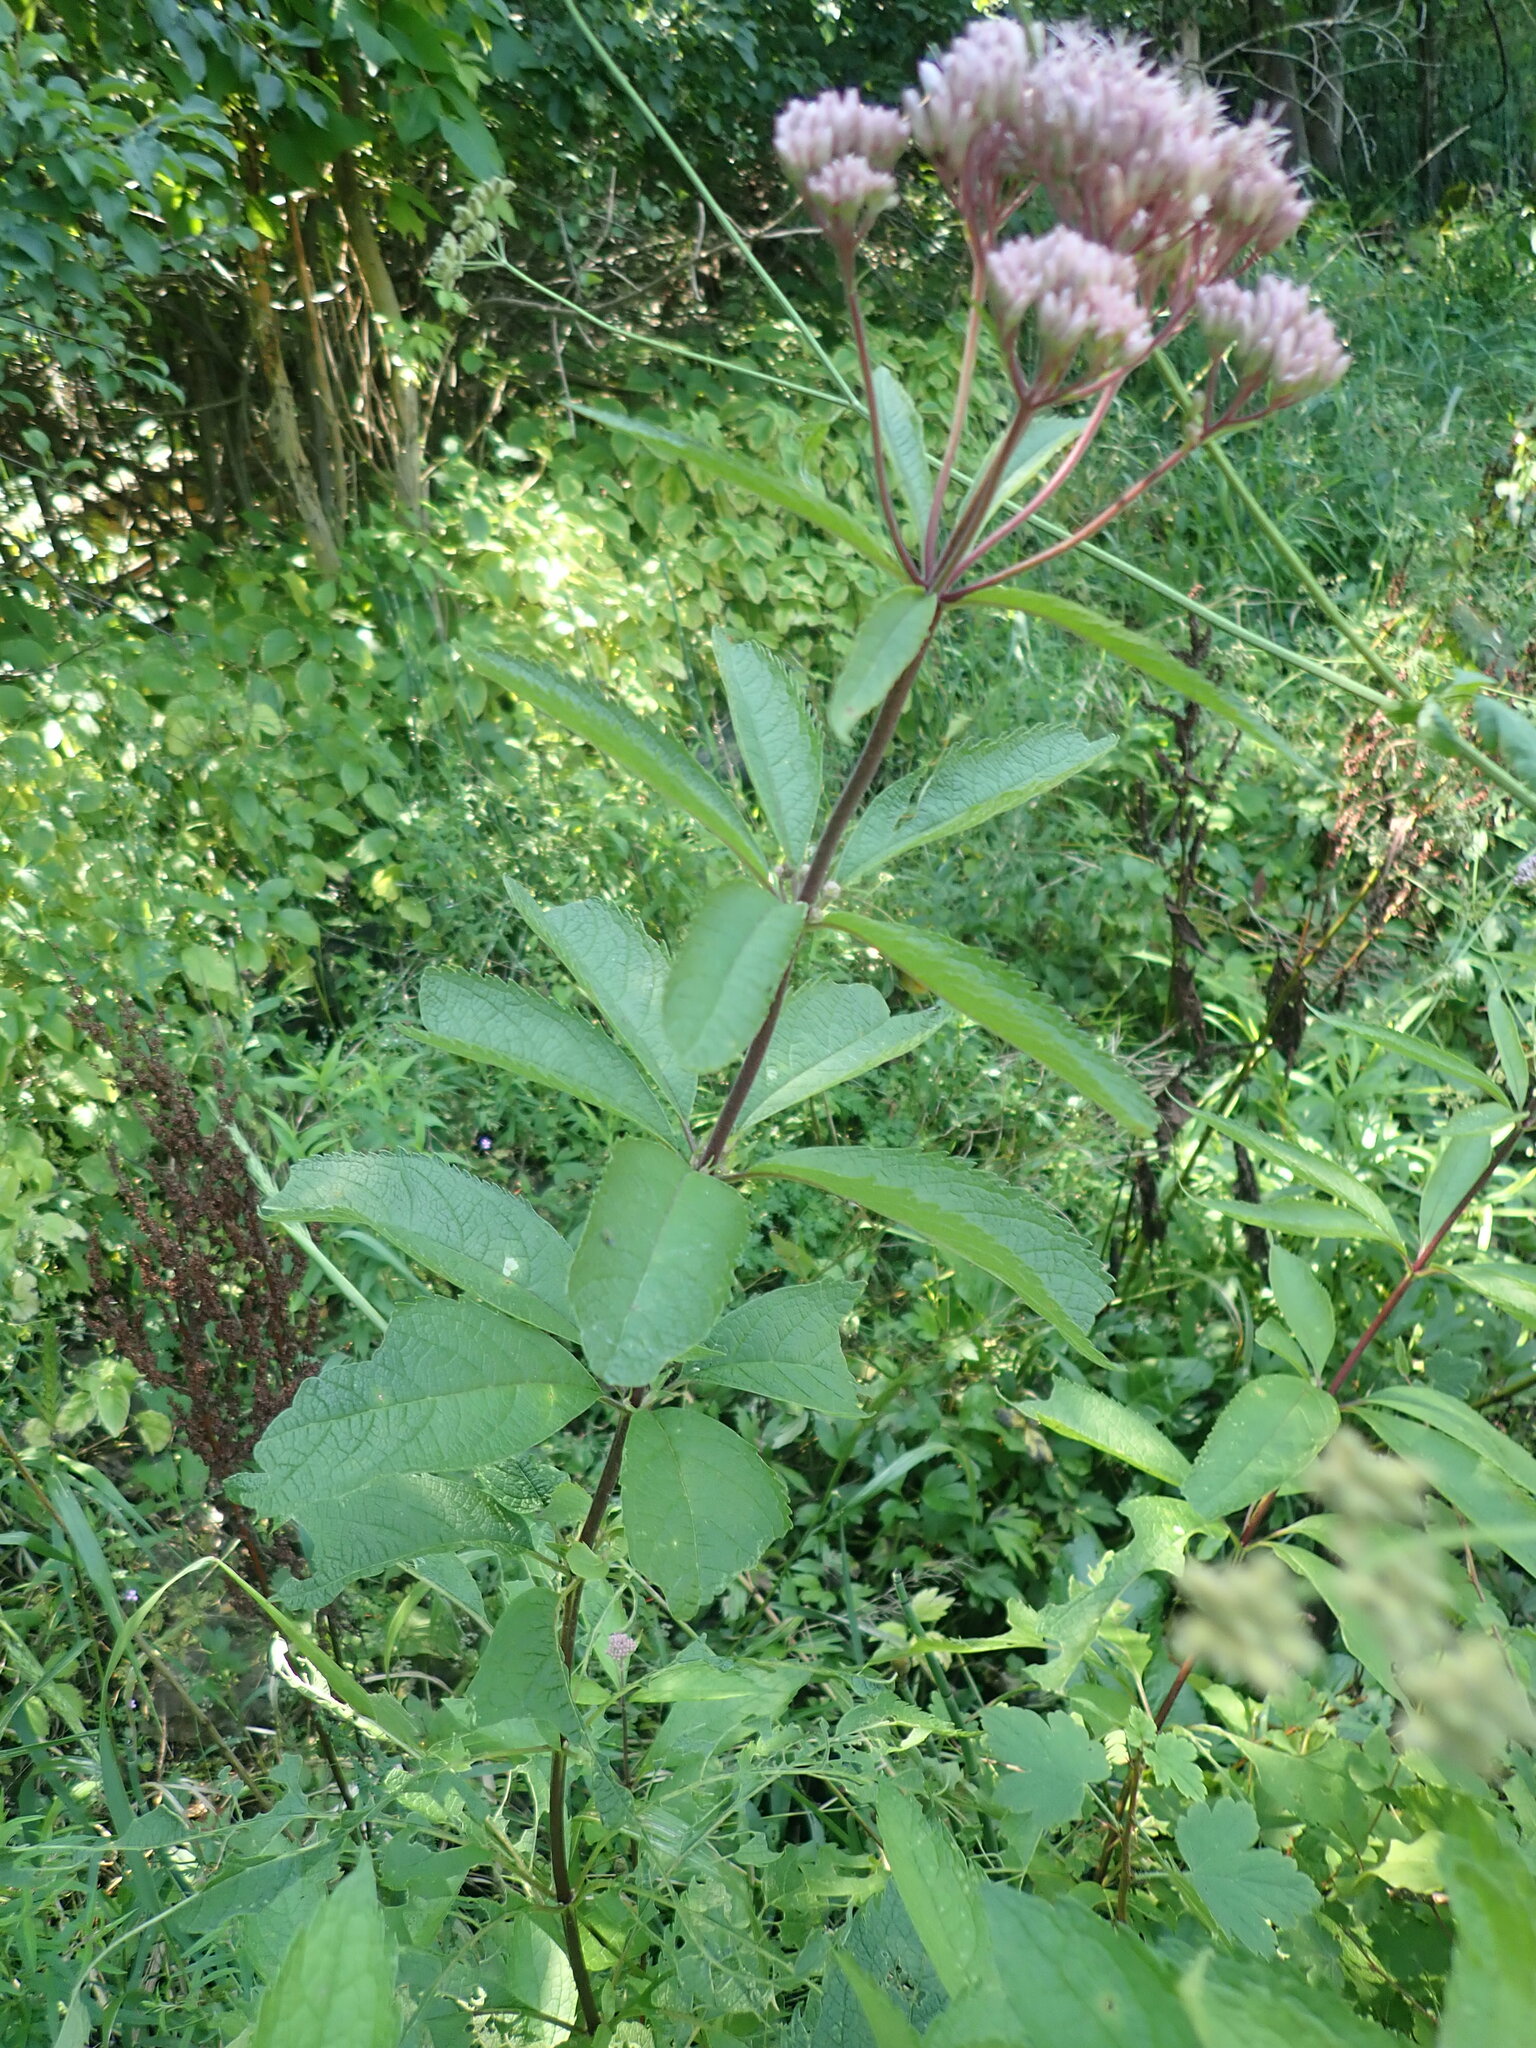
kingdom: Plantae
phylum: Tracheophyta
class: Magnoliopsida
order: Asterales
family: Asteraceae
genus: Eutrochium
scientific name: Eutrochium maculatum
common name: Spotted joe pye weed
